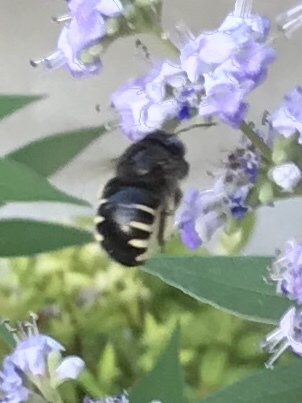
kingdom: Animalia
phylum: Arthropoda
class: Insecta
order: Hymenoptera
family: Apidae
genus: Xylocopa
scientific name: Xylocopa tabaniformis
